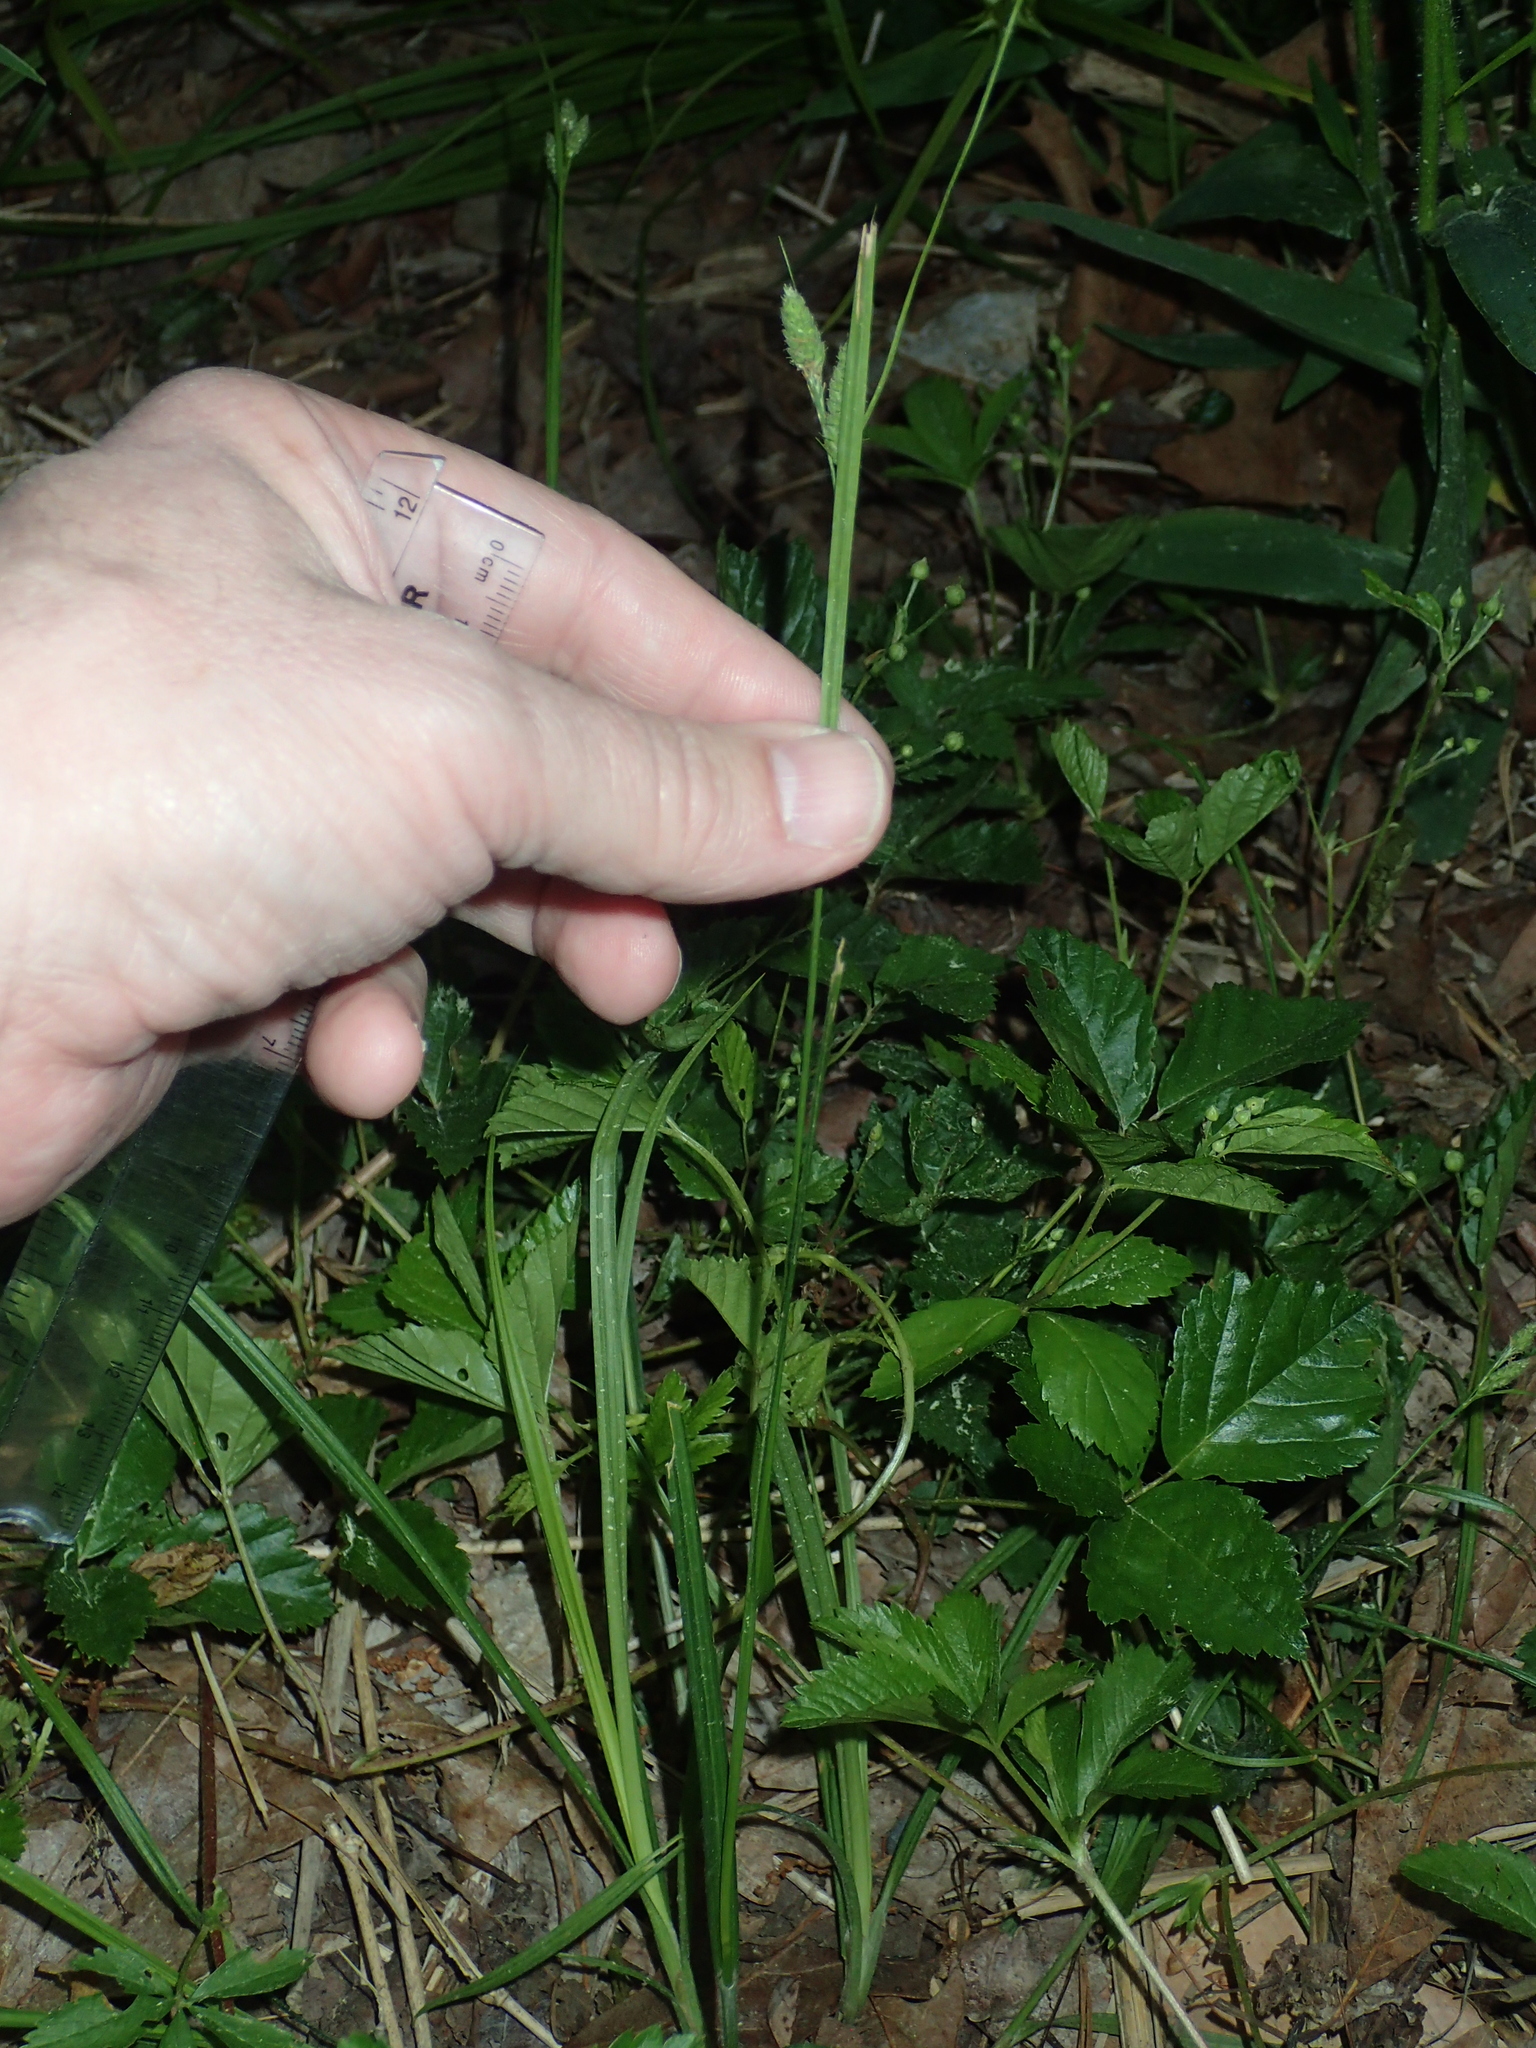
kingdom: Plantae
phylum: Tracheophyta
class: Liliopsida
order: Poales
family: Cyperaceae
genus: Carex
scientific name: Carex swanii
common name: Downy green sedge
